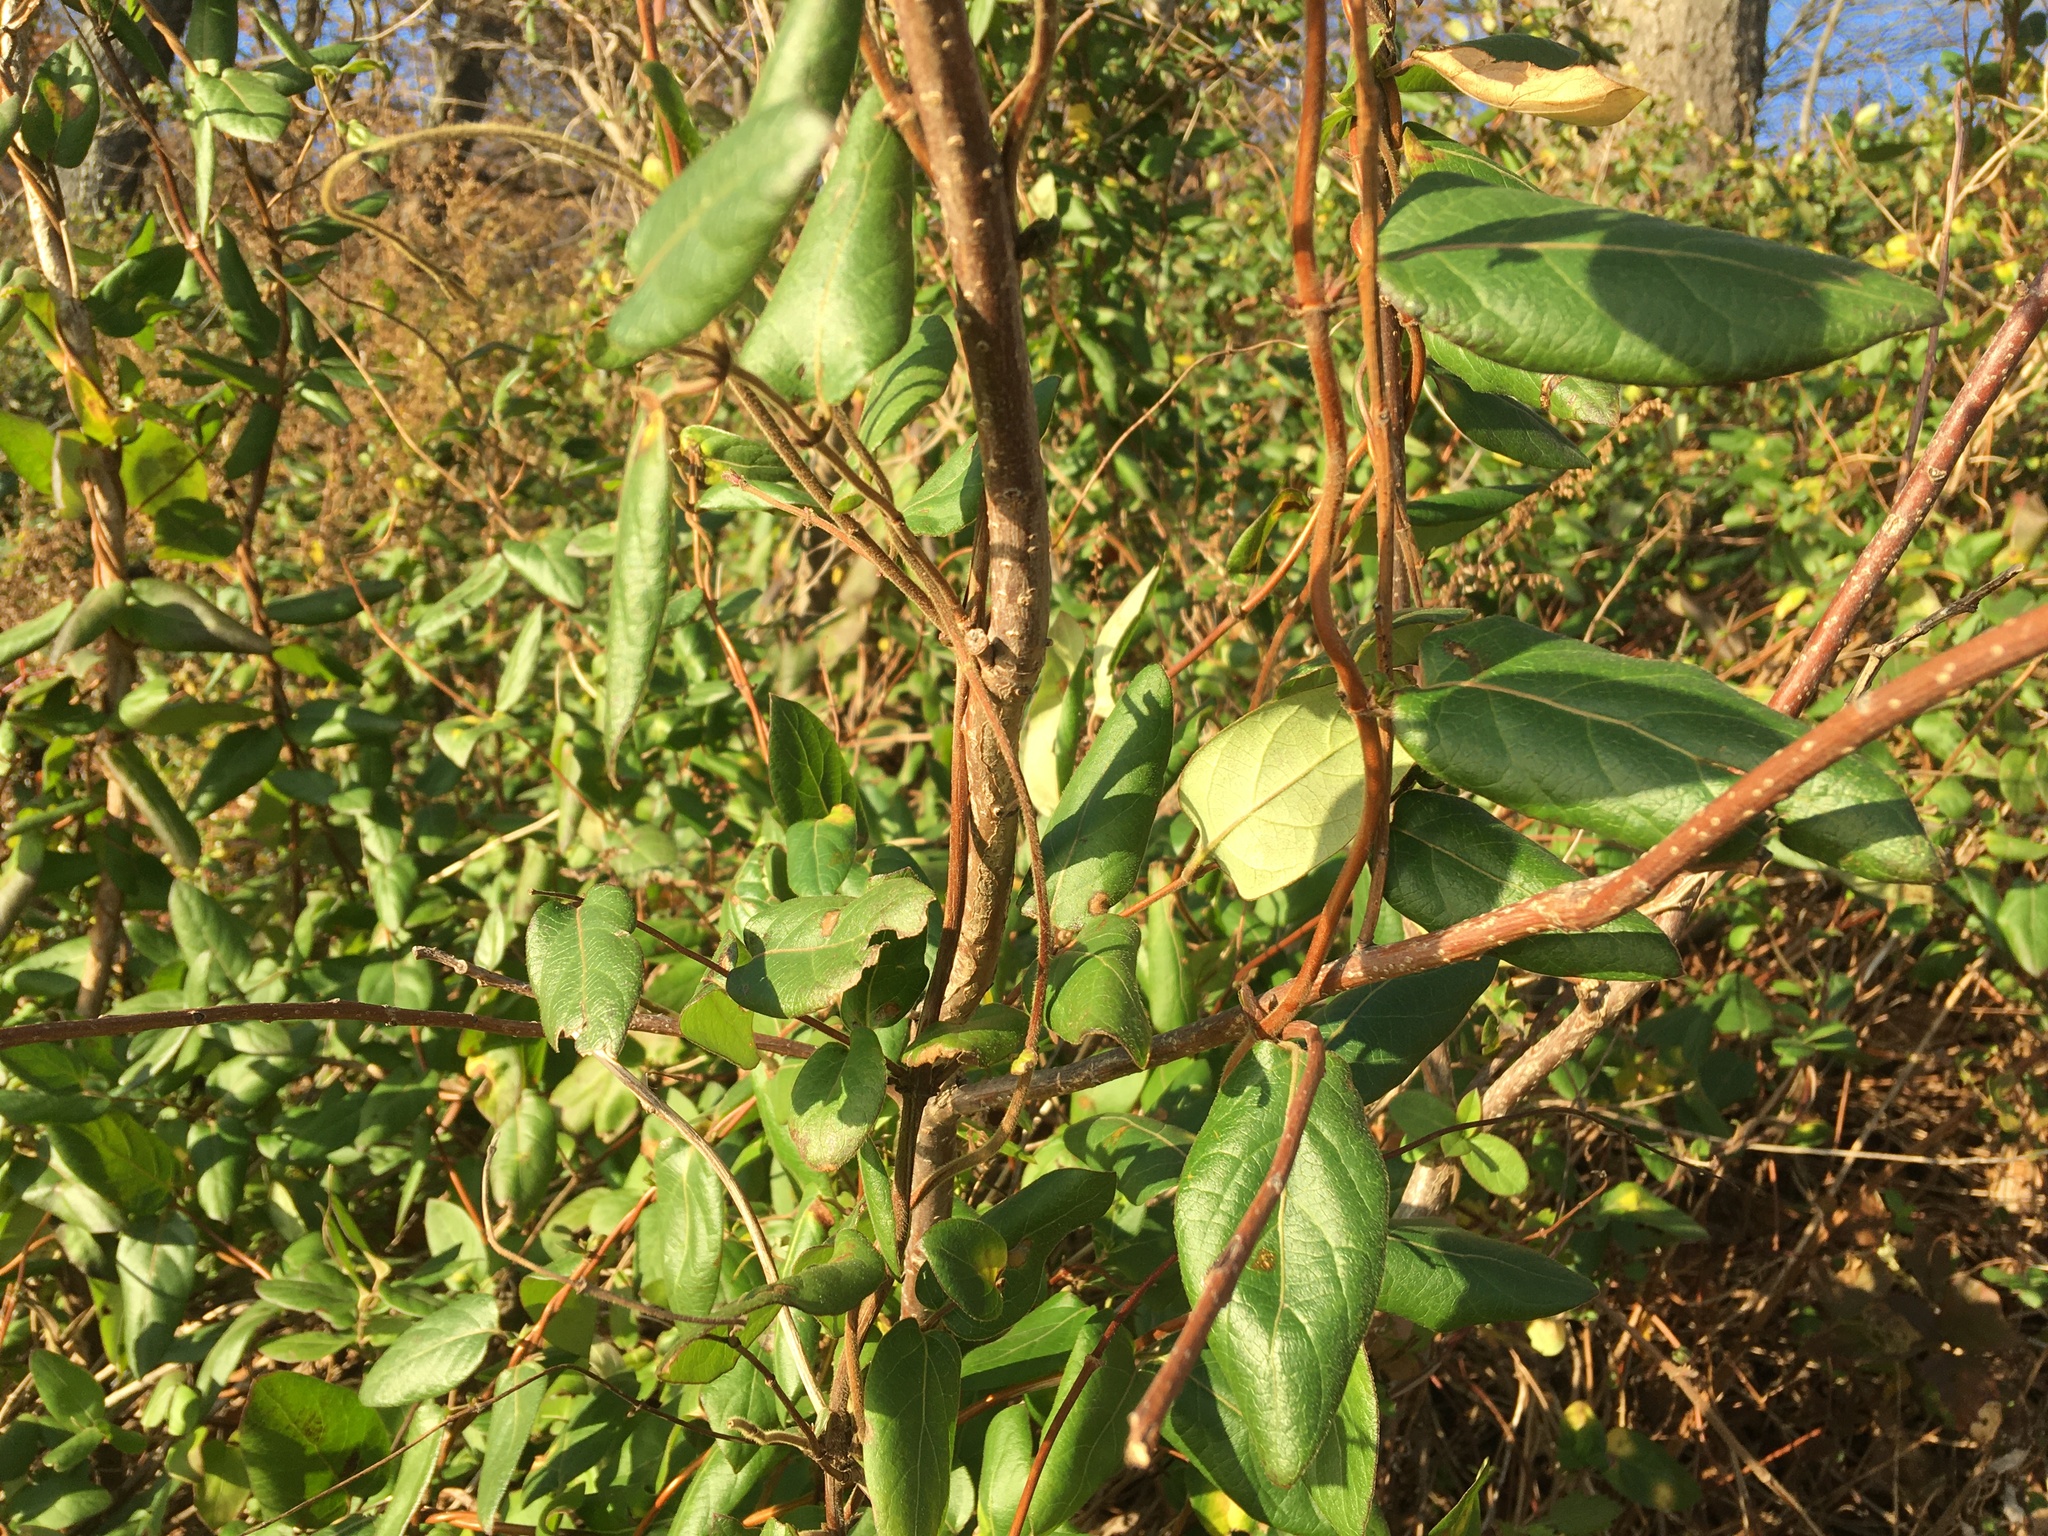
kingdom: Plantae
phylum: Tracheophyta
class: Magnoliopsida
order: Dipsacales
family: Caprifoliaceae
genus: Lonicera
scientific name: Lonicera japonica
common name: Japanese honeysuckle
